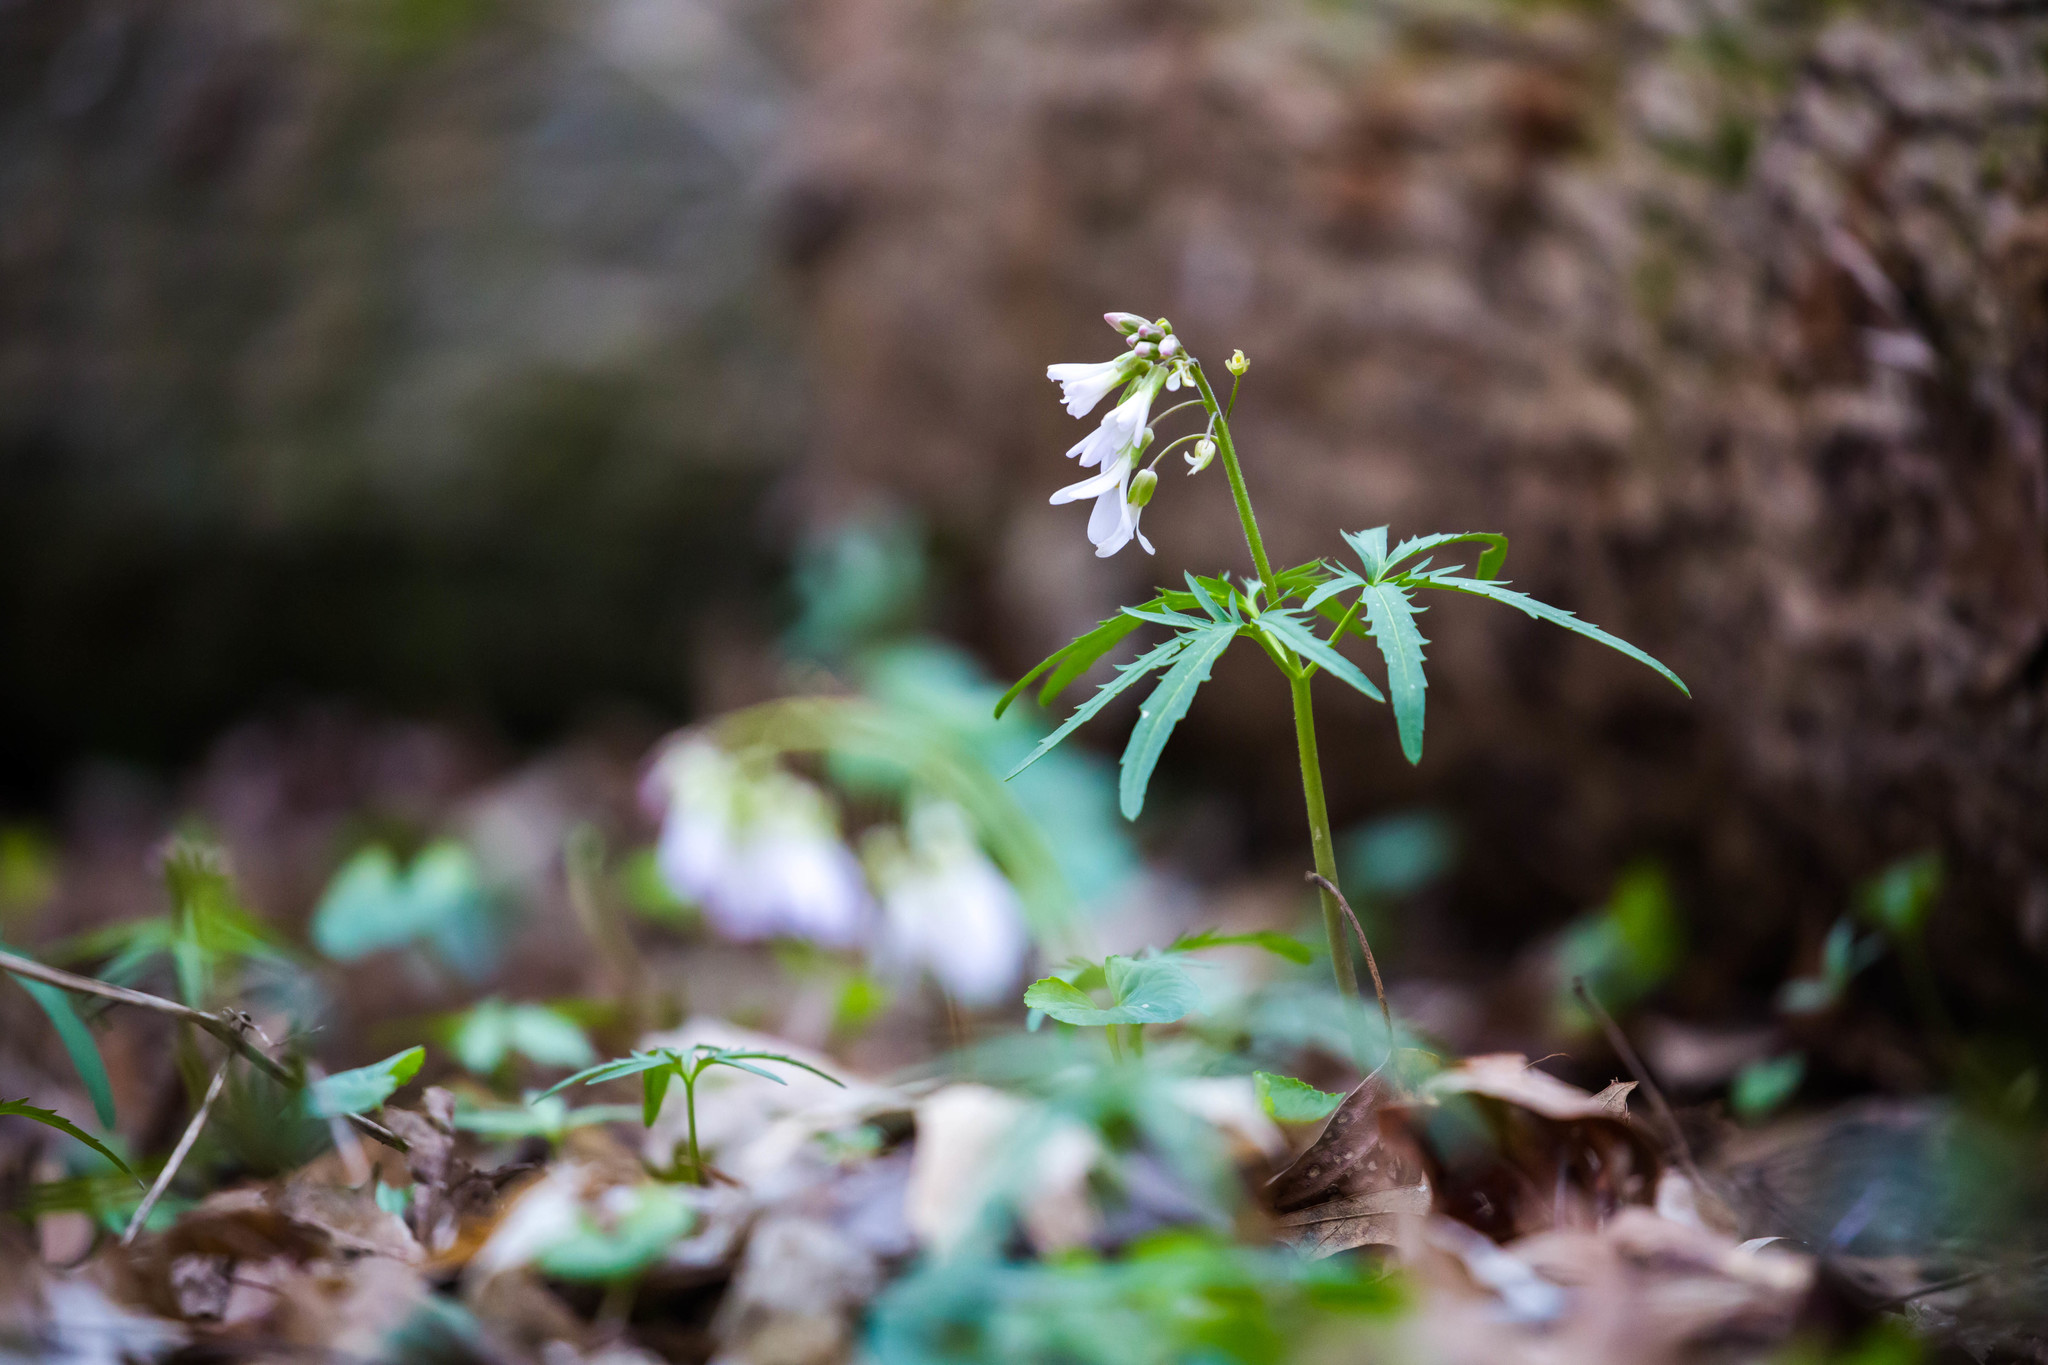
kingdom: Plantae
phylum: Tracheophyta
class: Magnoliopsida
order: Brassicales
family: Brassicaceae
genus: Cardamine
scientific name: Cardamine concatenata
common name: Cut-leaf toothcup
